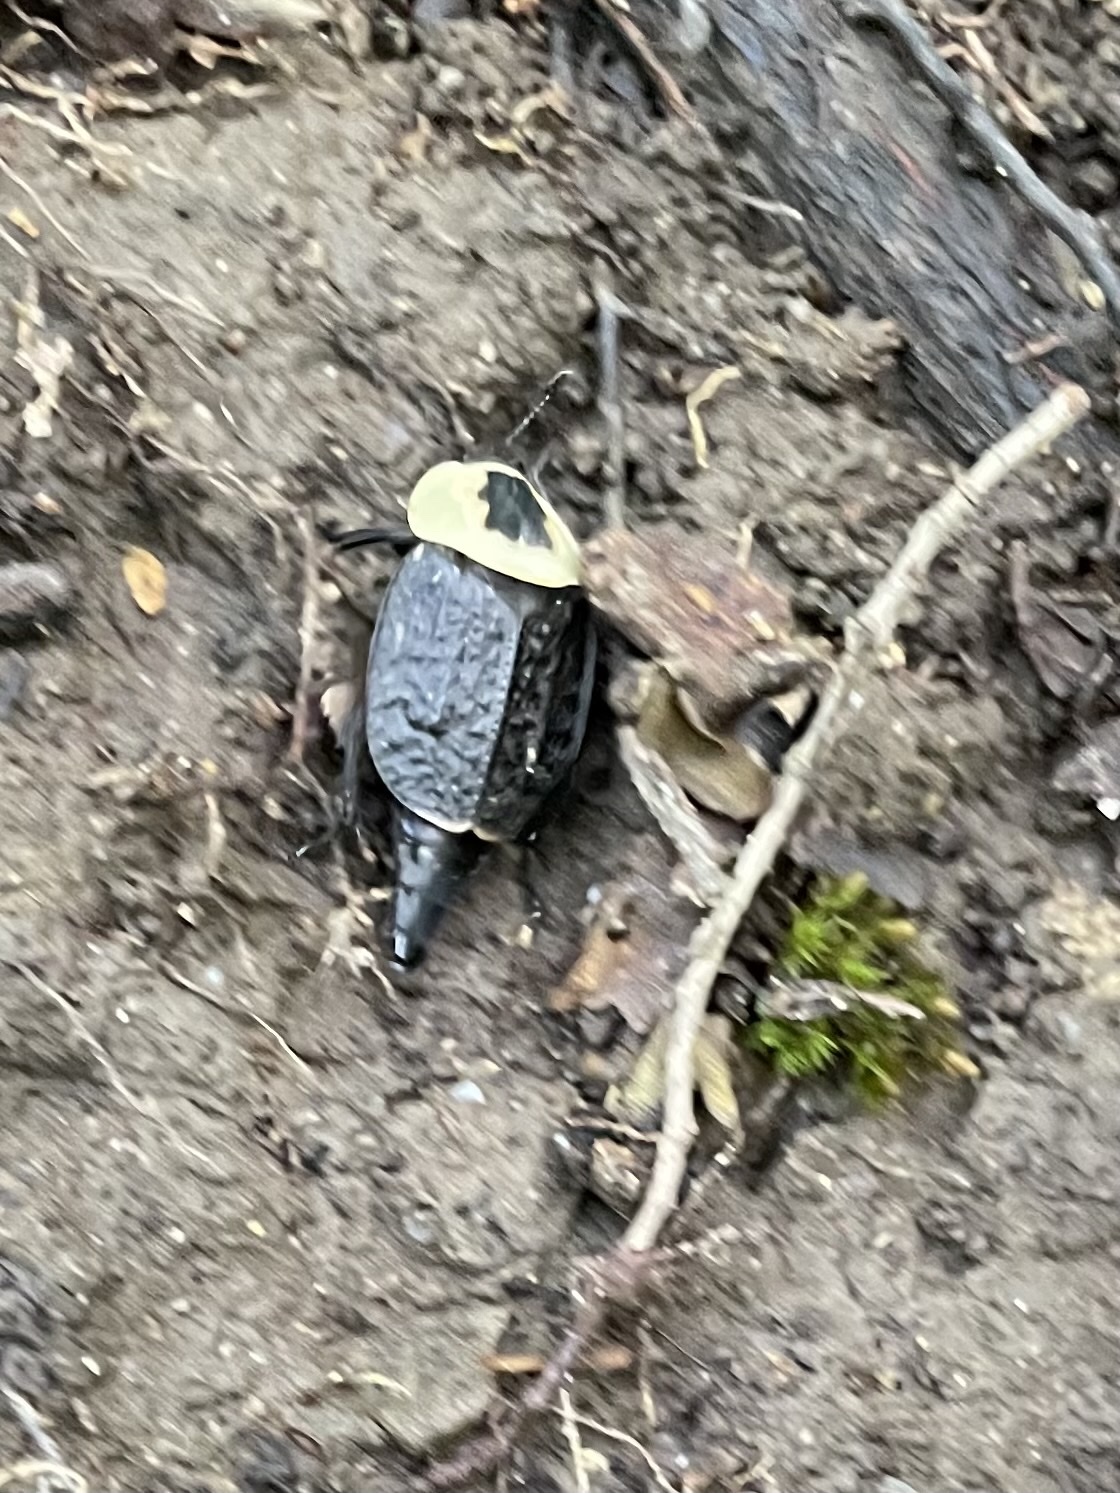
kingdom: Animalia
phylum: Arthropoda
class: Insecta
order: Coleoptera
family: Staphylinidae
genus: Necrophila
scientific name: Necrophila americana
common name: American carrion beetle
